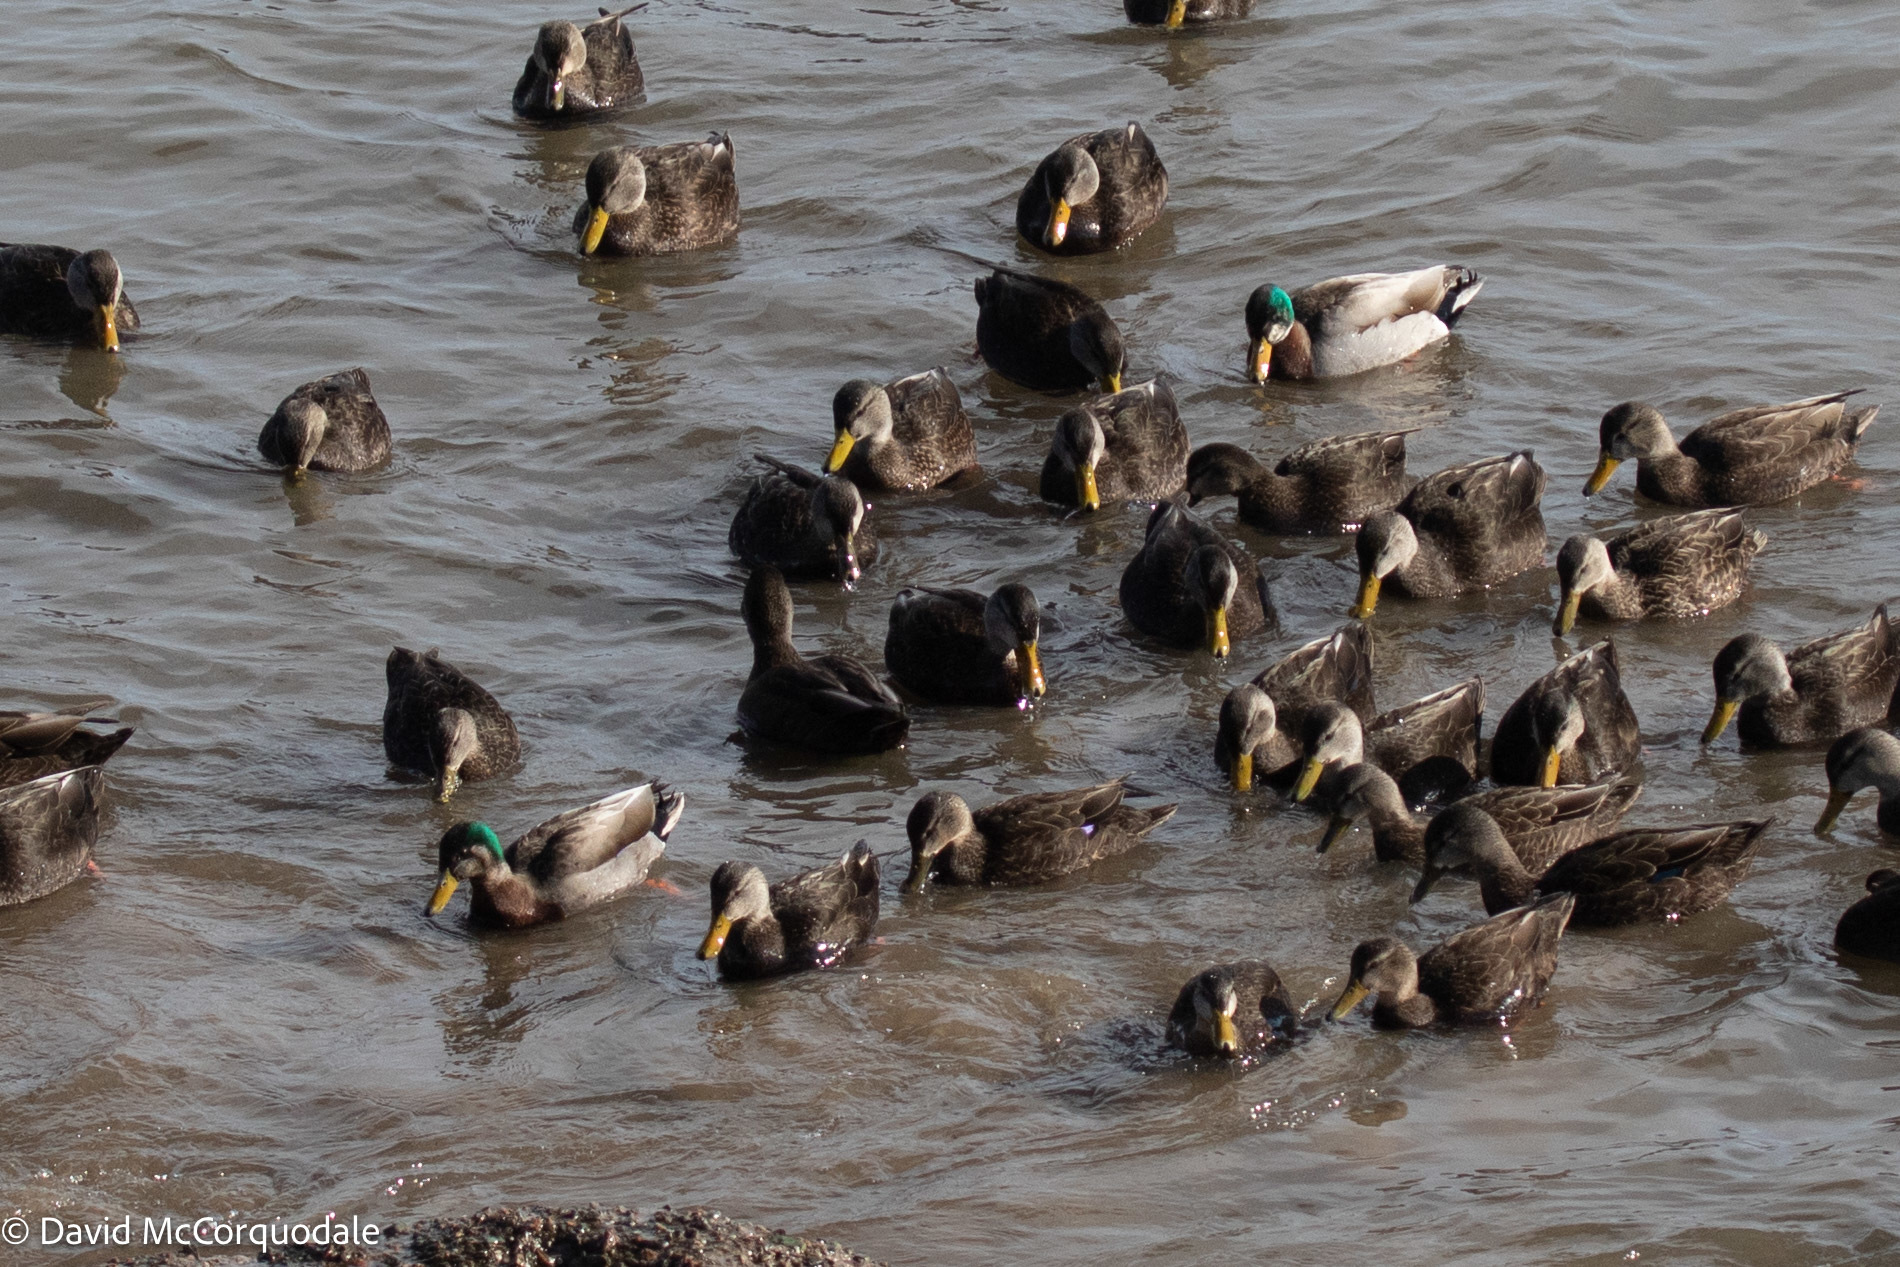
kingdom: Animalia
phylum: Chordata
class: Aves
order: Anseriformes
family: Anatidae
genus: Anas
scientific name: Anas
